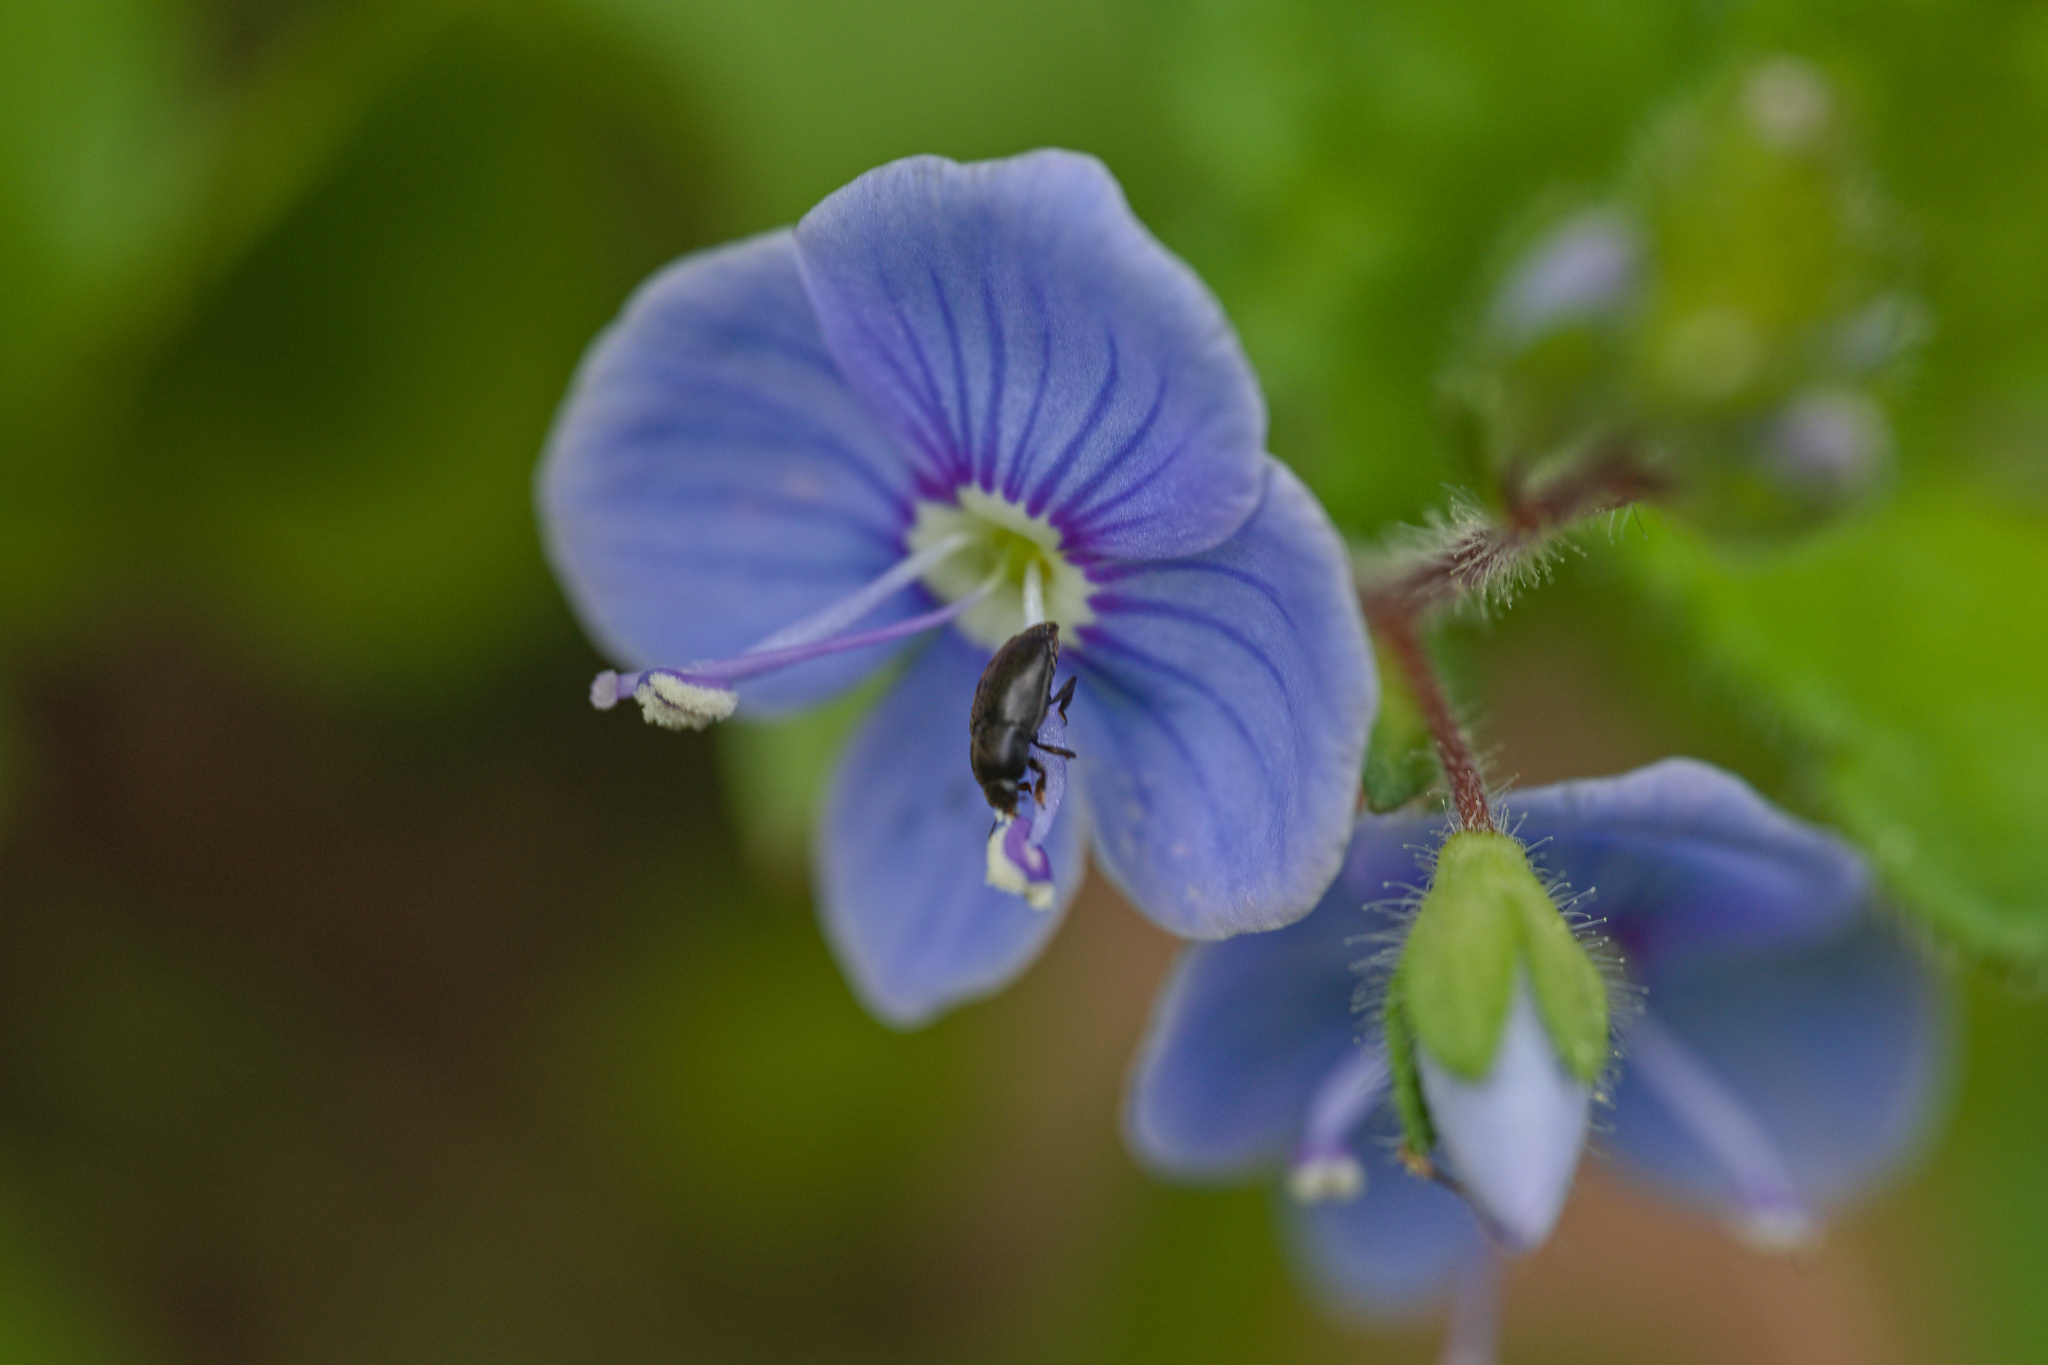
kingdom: Plantae
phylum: Tracheophyta
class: Magnoliopsida
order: Lamiales
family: Plantaginaceae
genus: Veronica
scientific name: Veronica chamaedrys
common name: Germander speedwell
